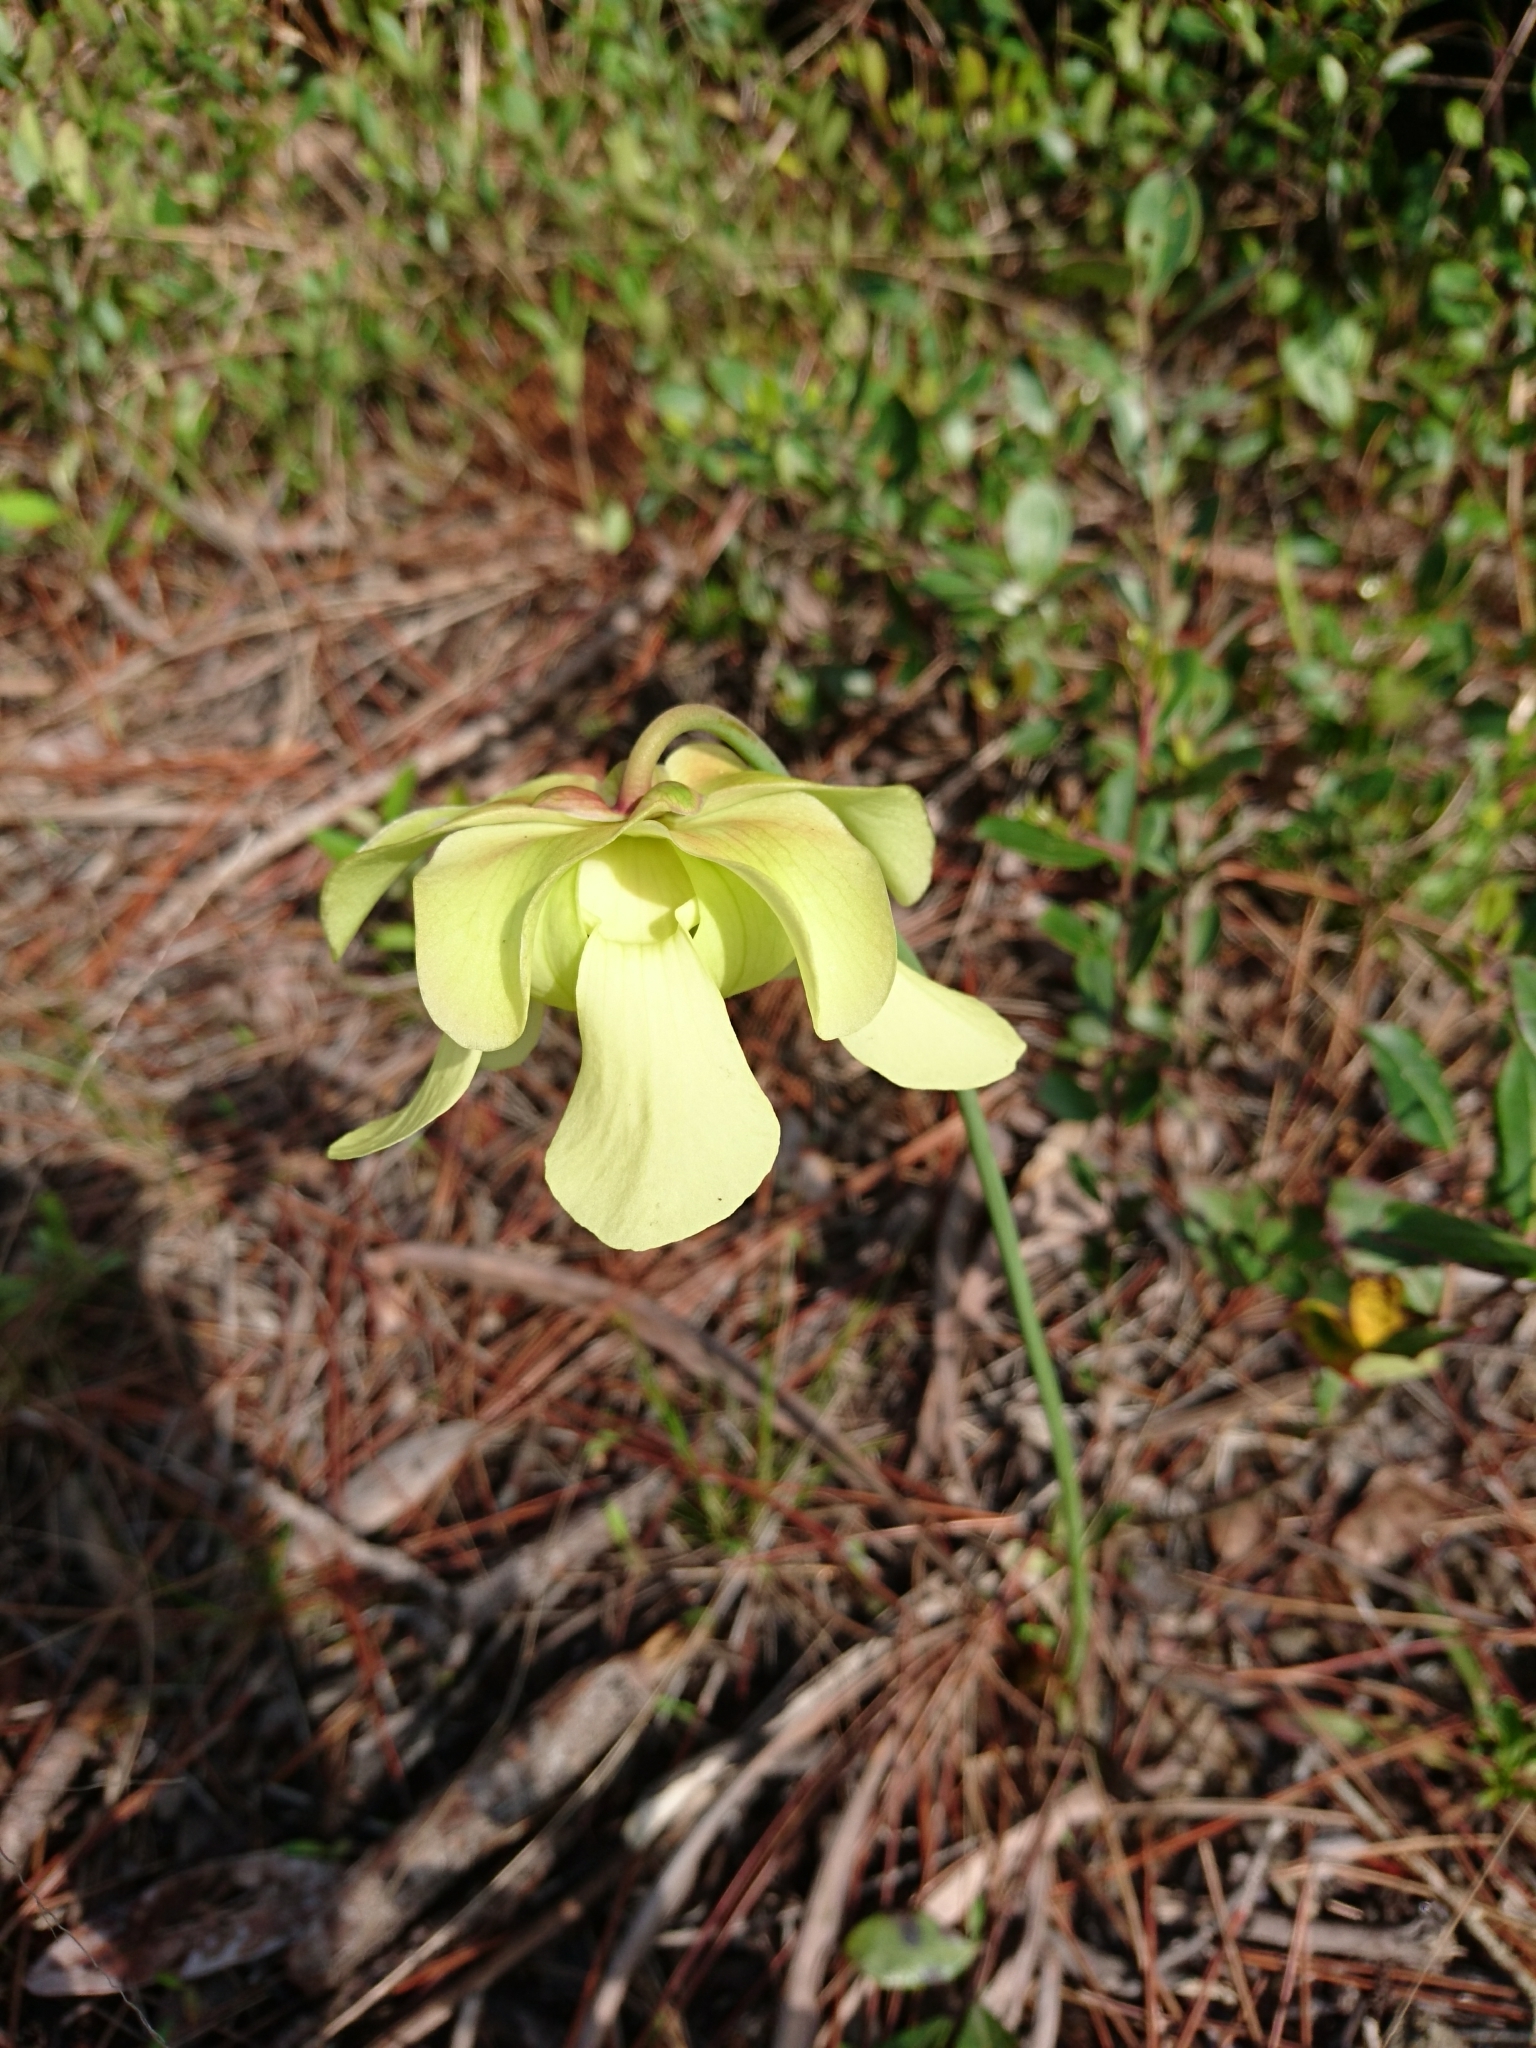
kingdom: Plantae
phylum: Tracheophyta
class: Magnoliopsida
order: Ericales
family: Sarraceniaceae
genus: Sarracenia
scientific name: Sarracenia alata
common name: Yellow trumpets
